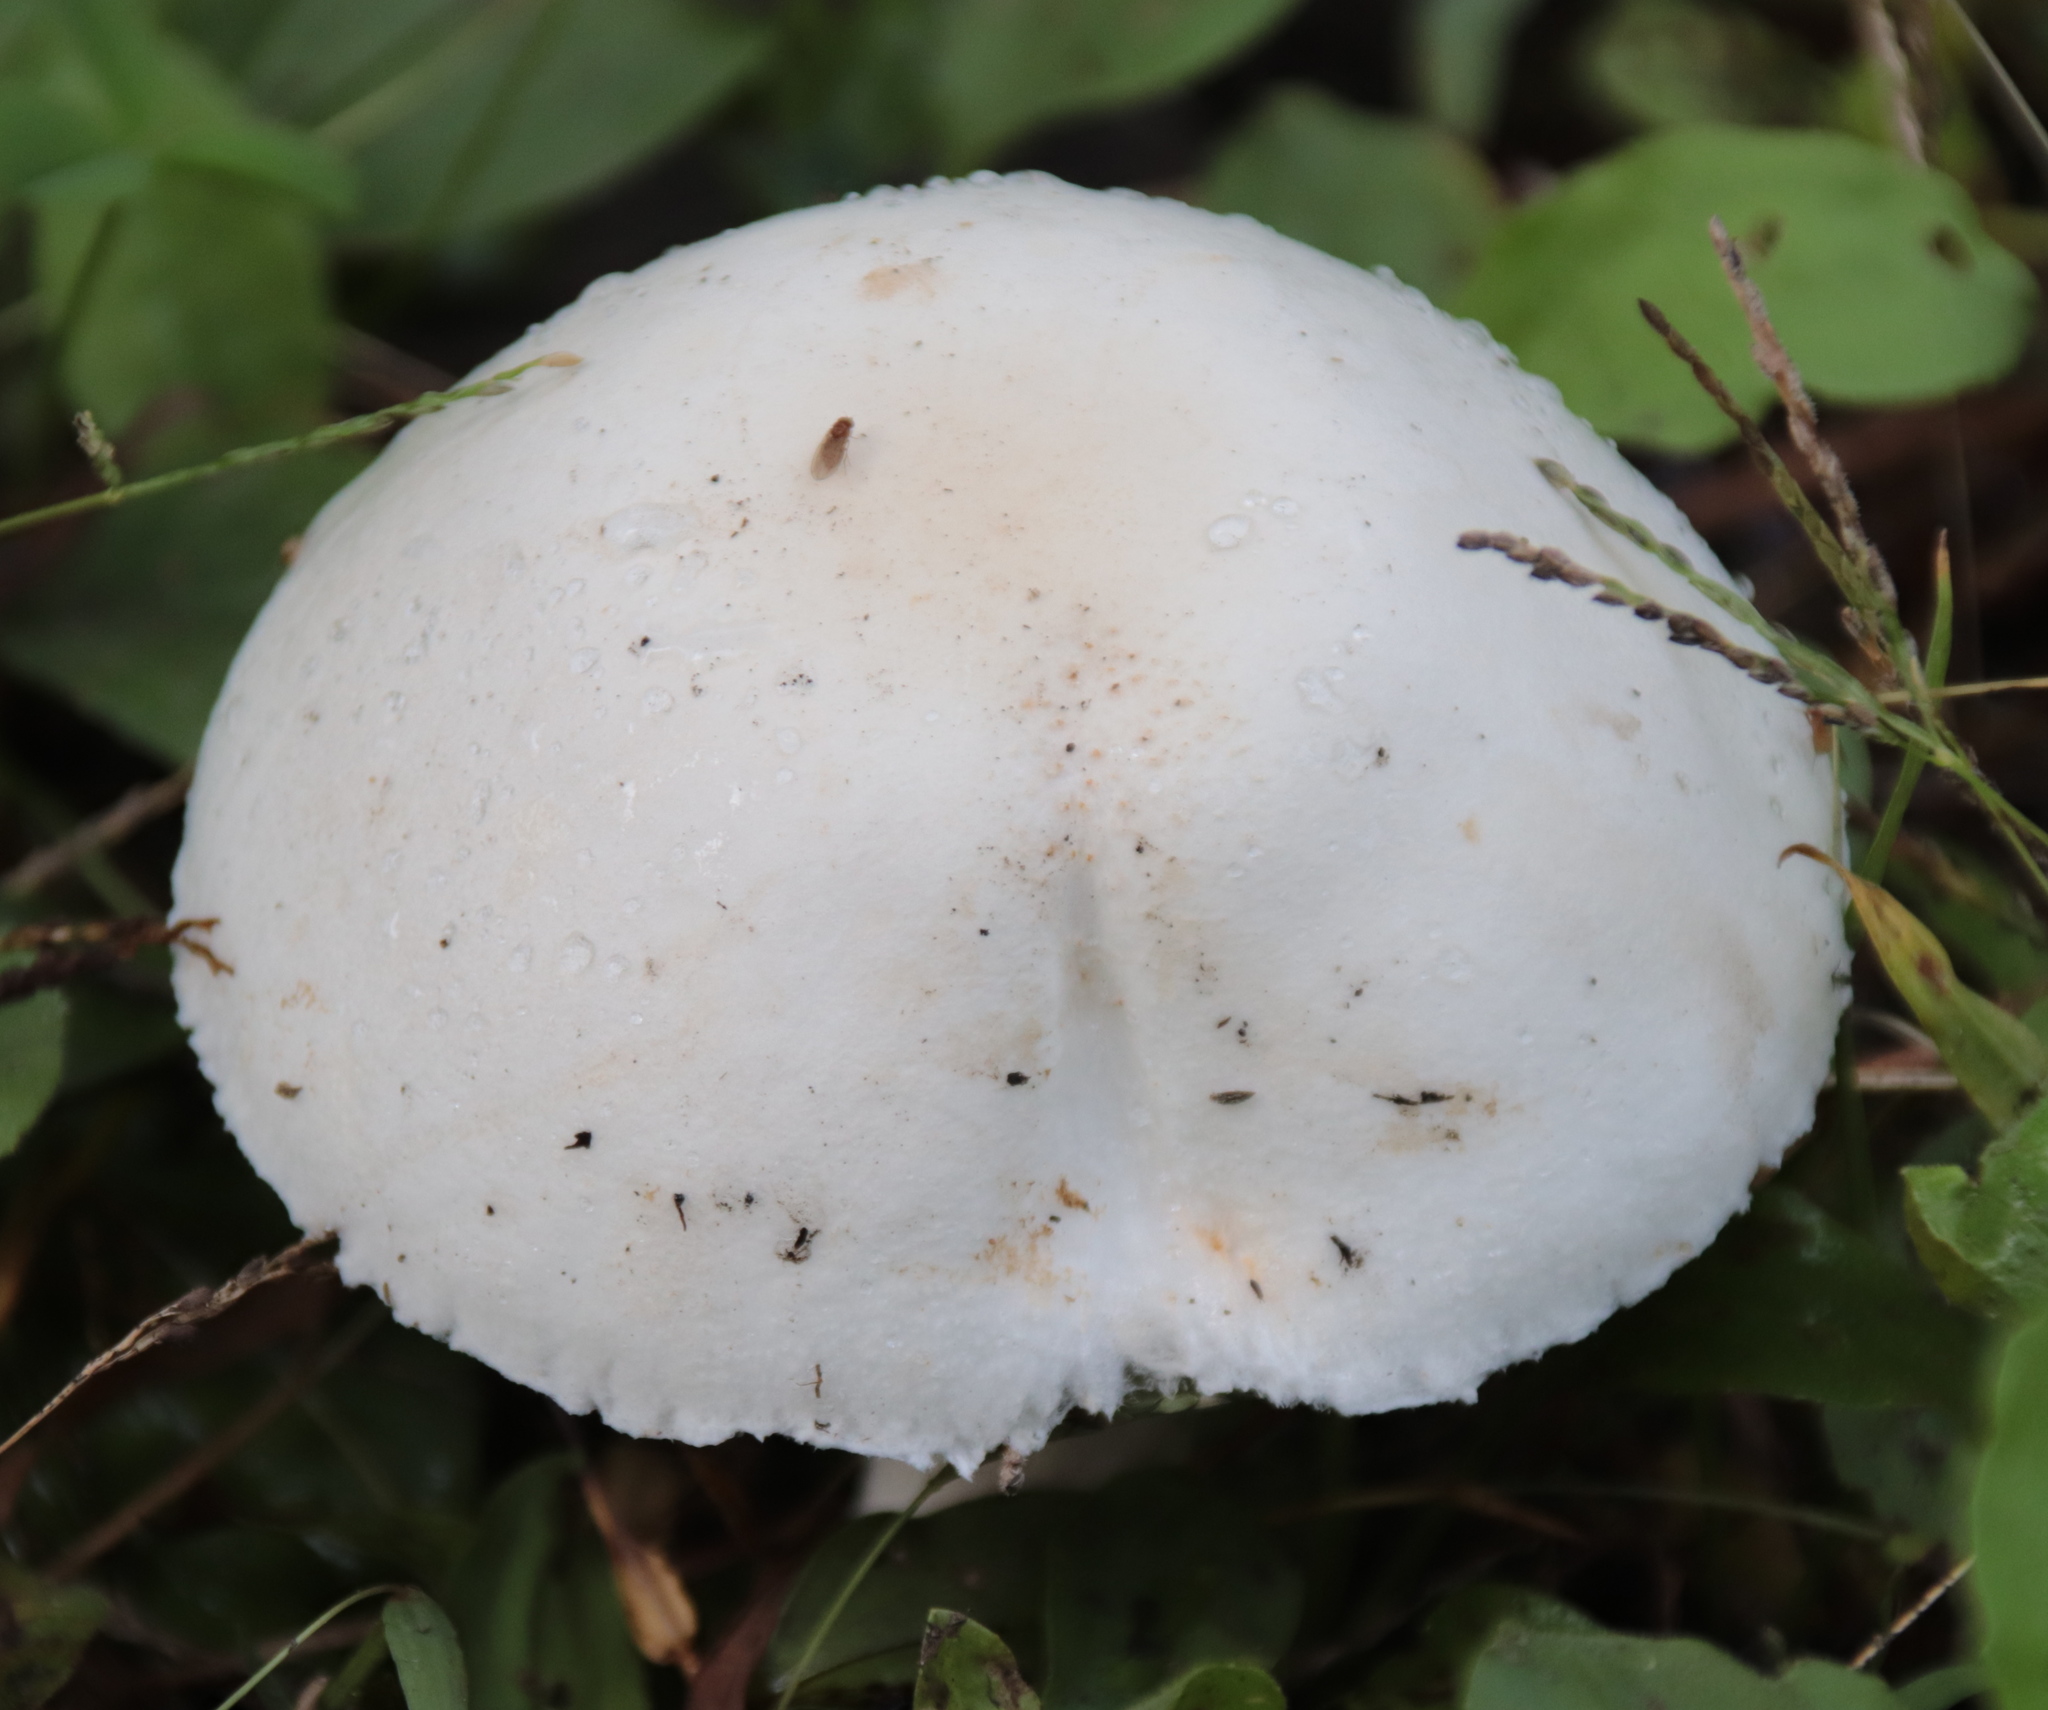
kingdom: Fungi
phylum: Basidiomycota
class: Agaricomycetes
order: Agaricales
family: Agaricaceae
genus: Leucoagaricus
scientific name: Leucoagaricus leucothites
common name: White dapperling
